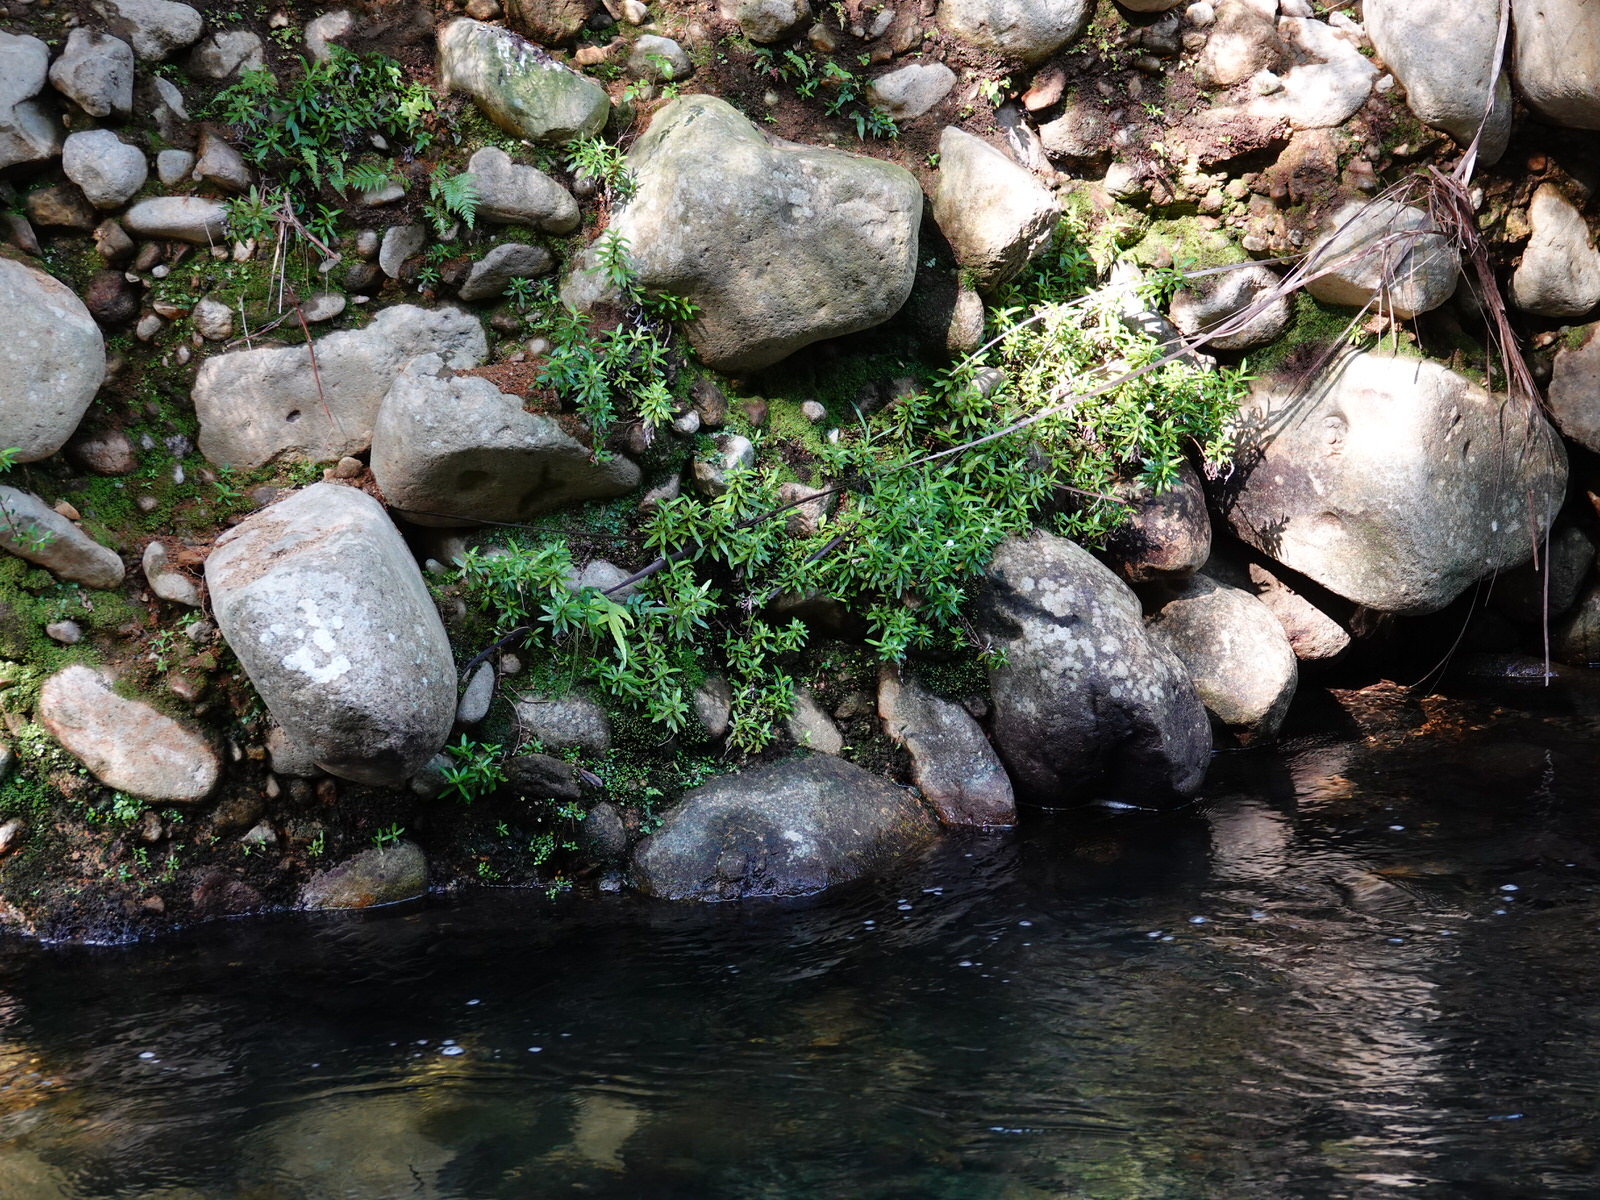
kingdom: Plantae
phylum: Tracheophyta
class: Magnoliopsida
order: Asterales
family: Asteraceae
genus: Anaphalioides
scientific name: Anaphalioides trinervis
